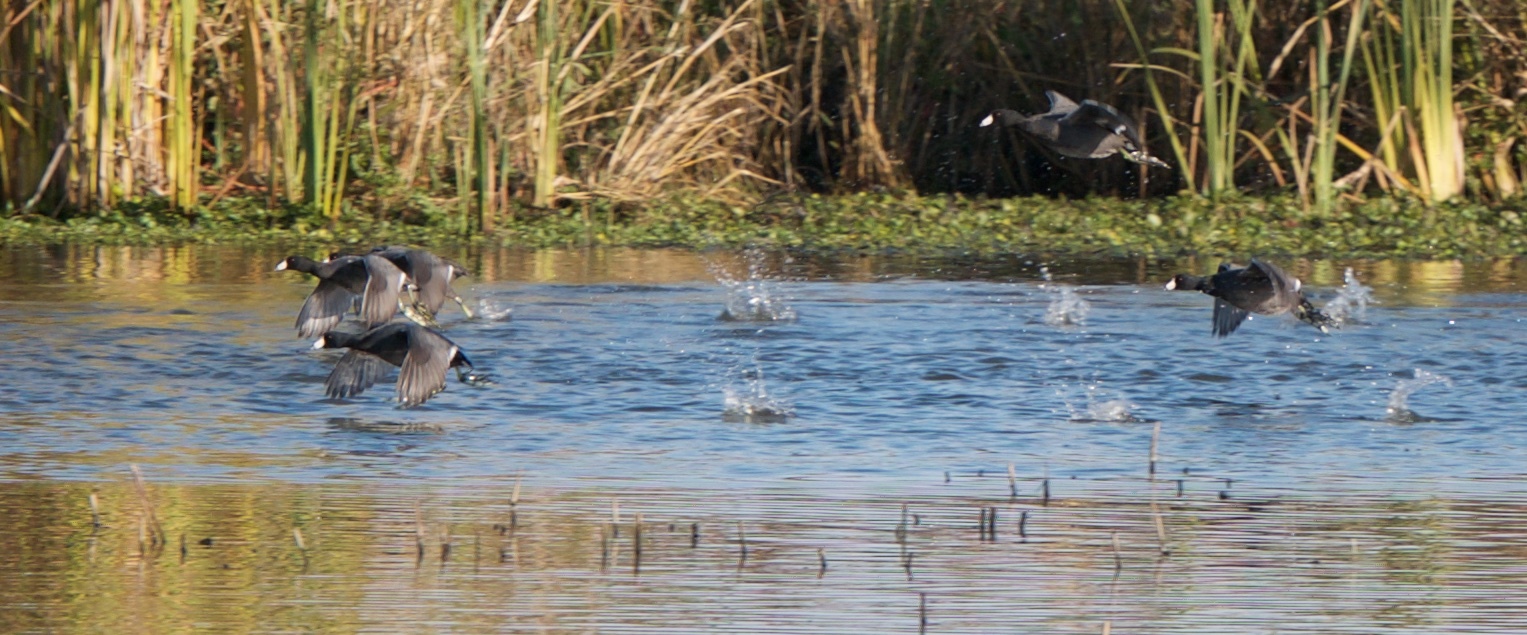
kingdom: Animalia
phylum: Chordata
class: Aves
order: Gruiformes
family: Rallidae
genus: Fulica
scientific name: Fulica americana
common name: American coot
